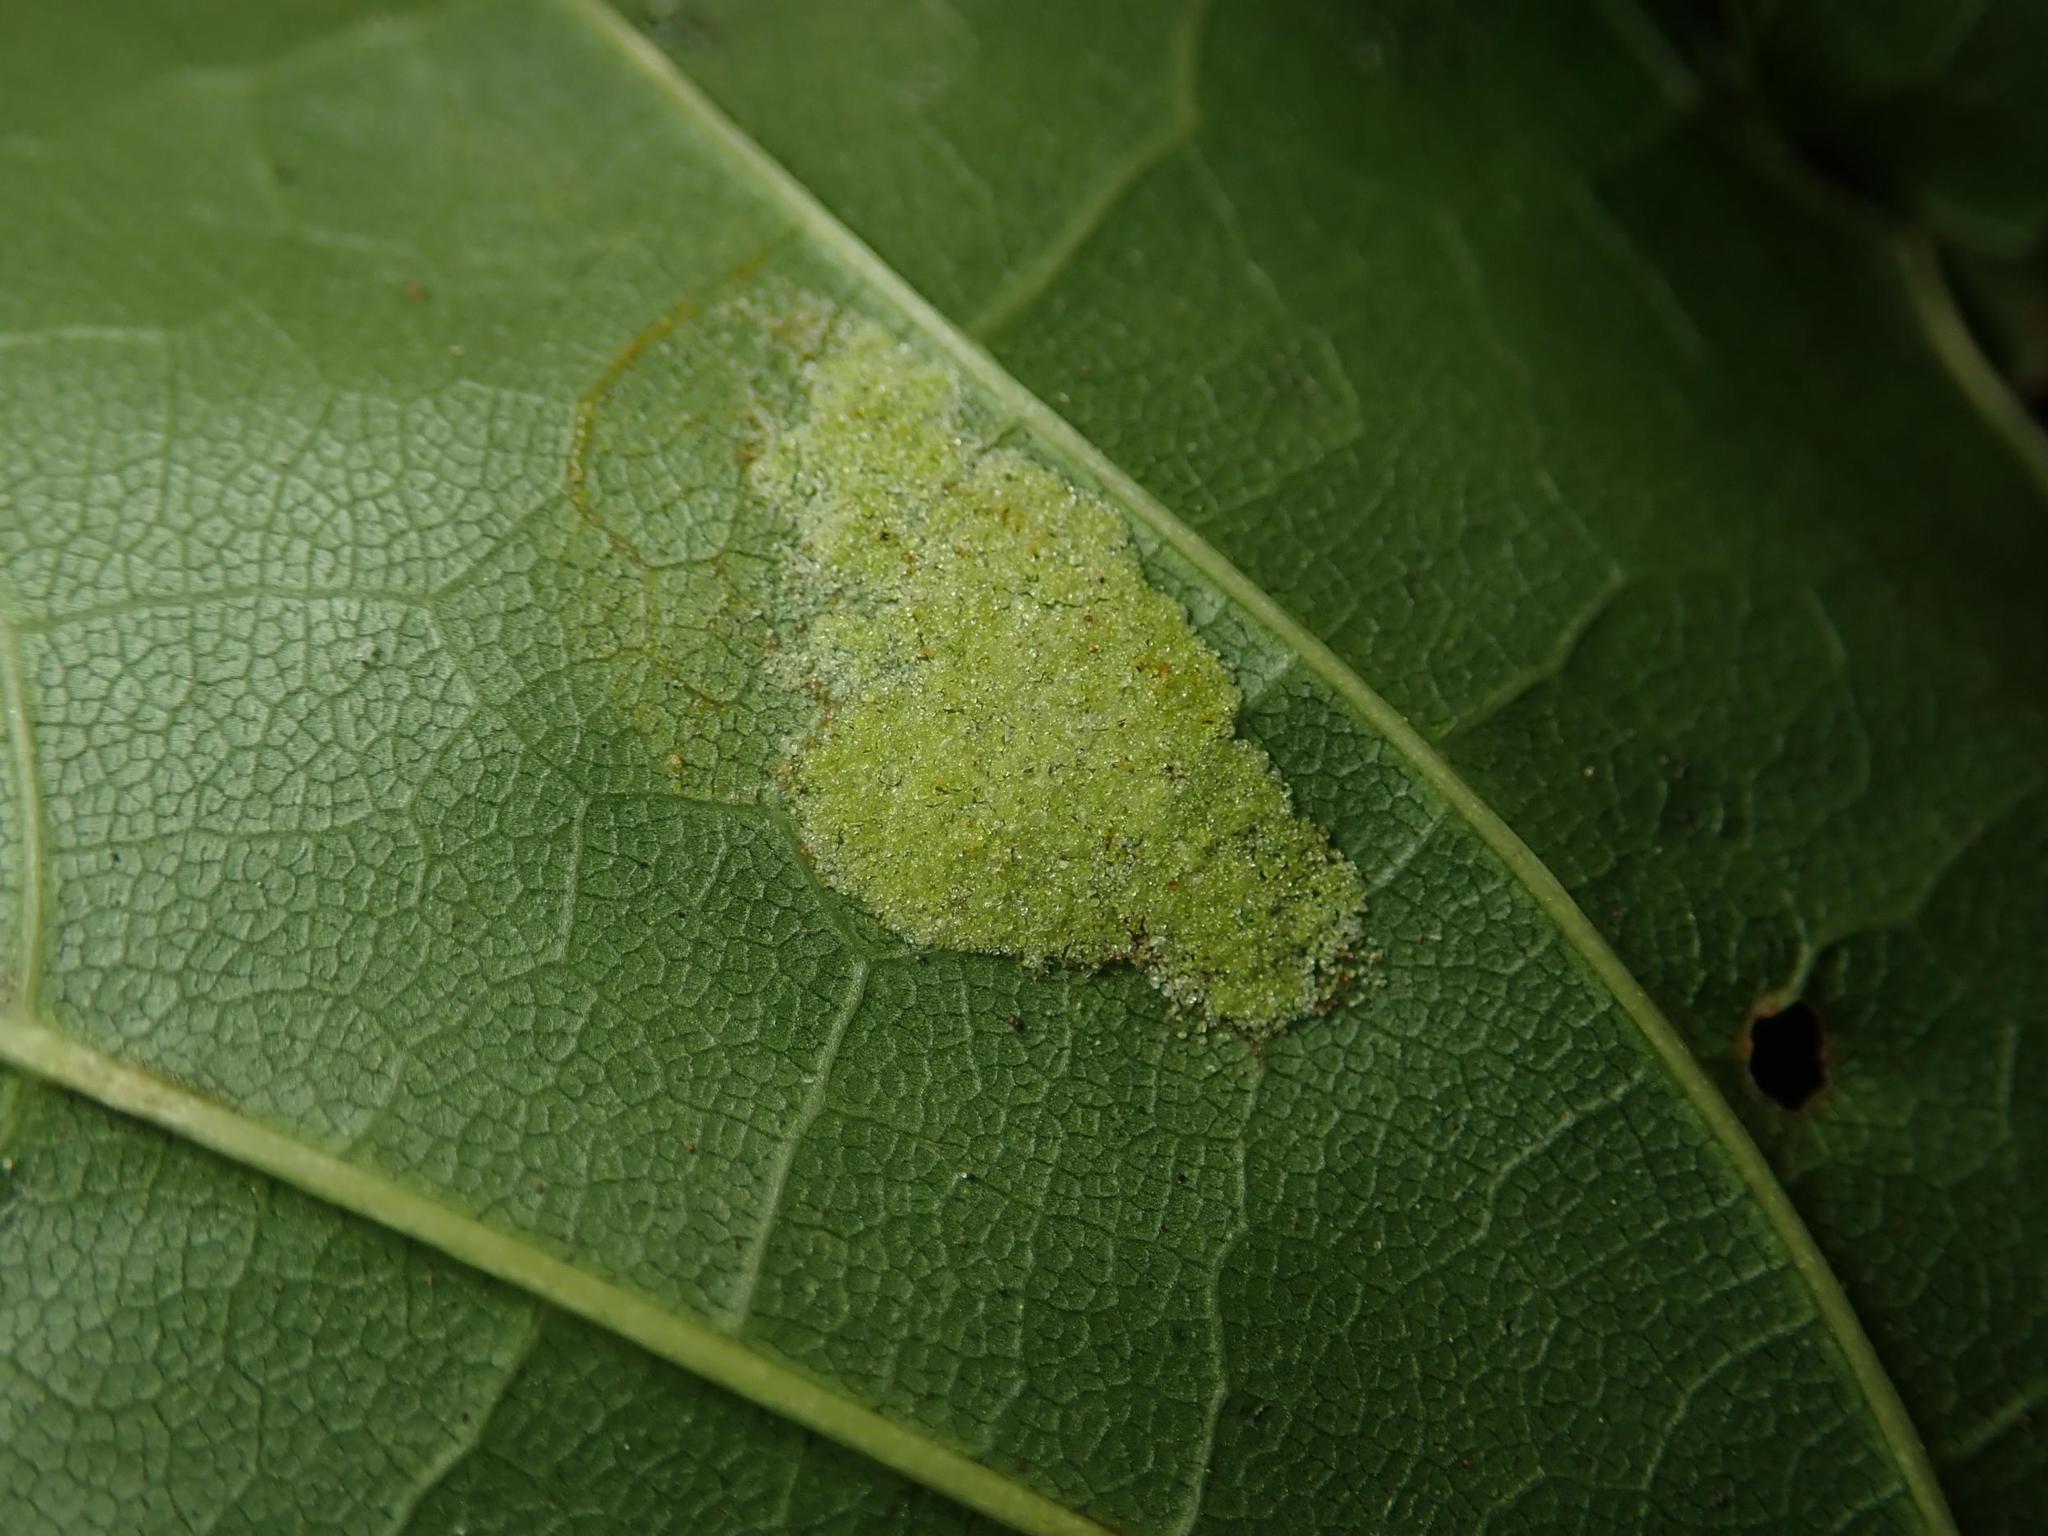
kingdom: Animalia
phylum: Arthropoda
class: Arachnida
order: Trombidiformes
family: Eriophyidae
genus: Aceria
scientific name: Aceria platanoidea
